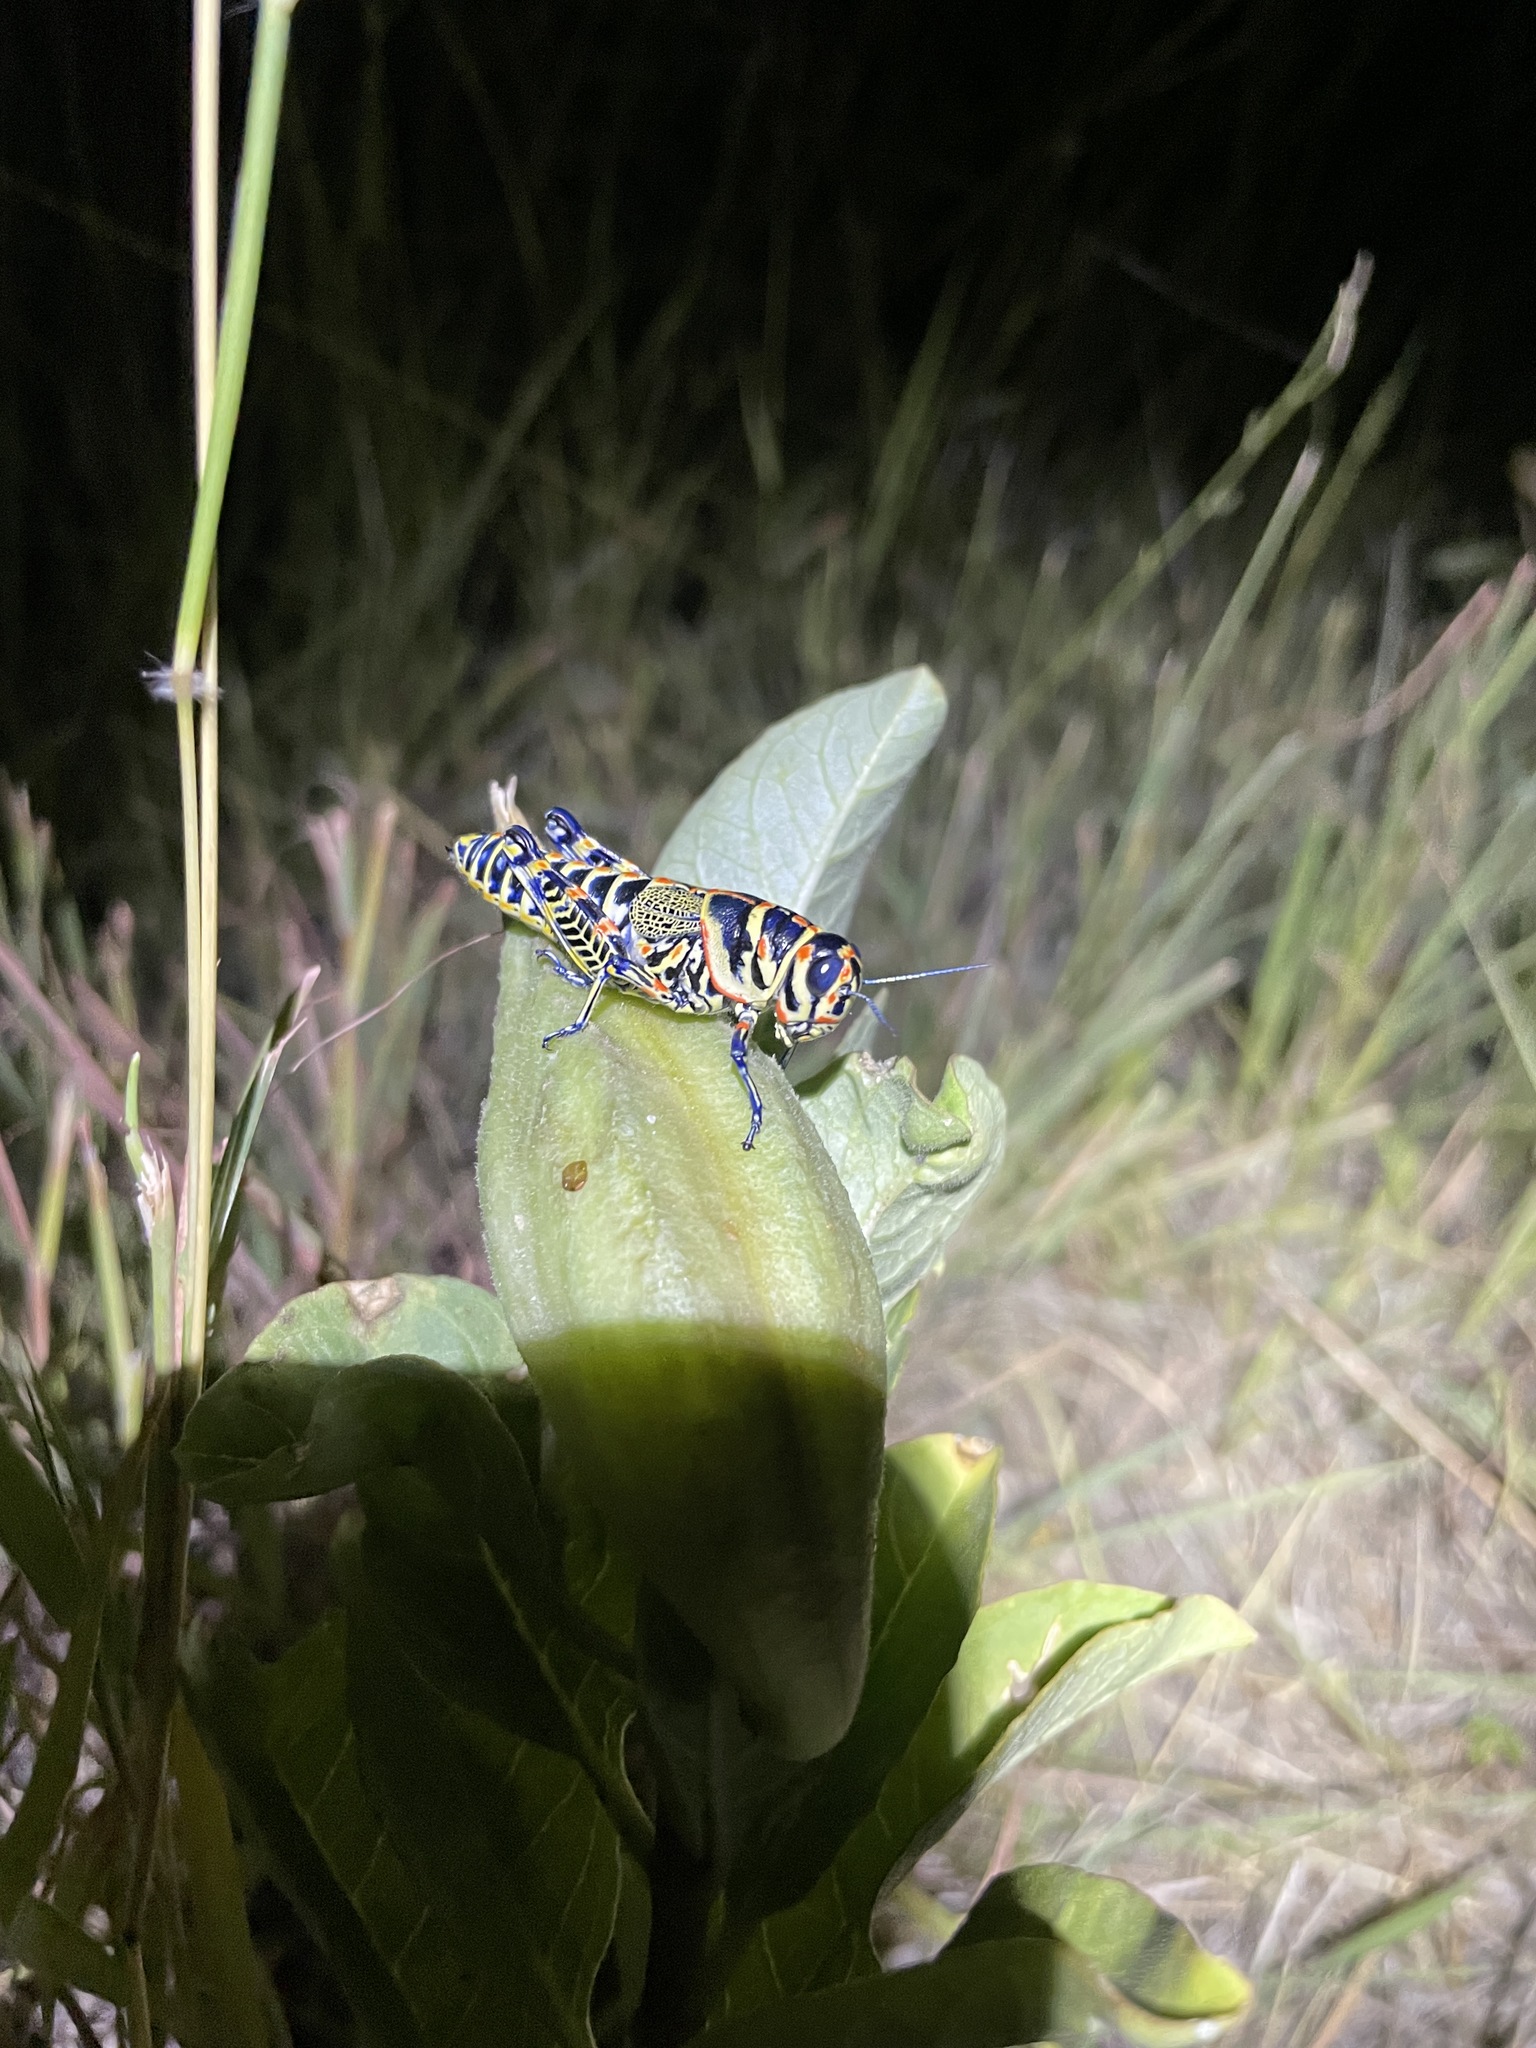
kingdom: Animalia
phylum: Arthropoda
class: Insecta
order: Orthoptera
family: Acrididae
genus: Dactylotum
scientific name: Dactylotum bicolor
